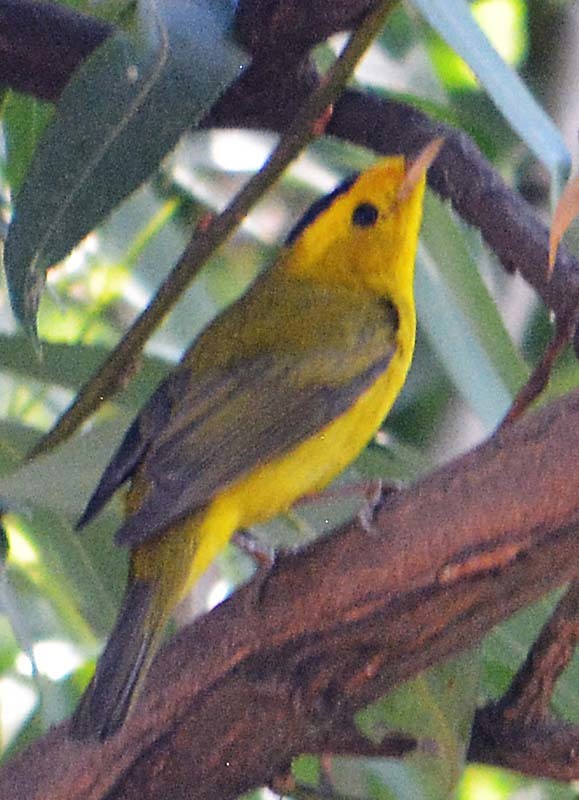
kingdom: Animalia
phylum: Chordata
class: Aves
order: Passeriformes
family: Parulidae
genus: Cardellina
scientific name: Cardellina pusilla
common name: Wilson's warbler
